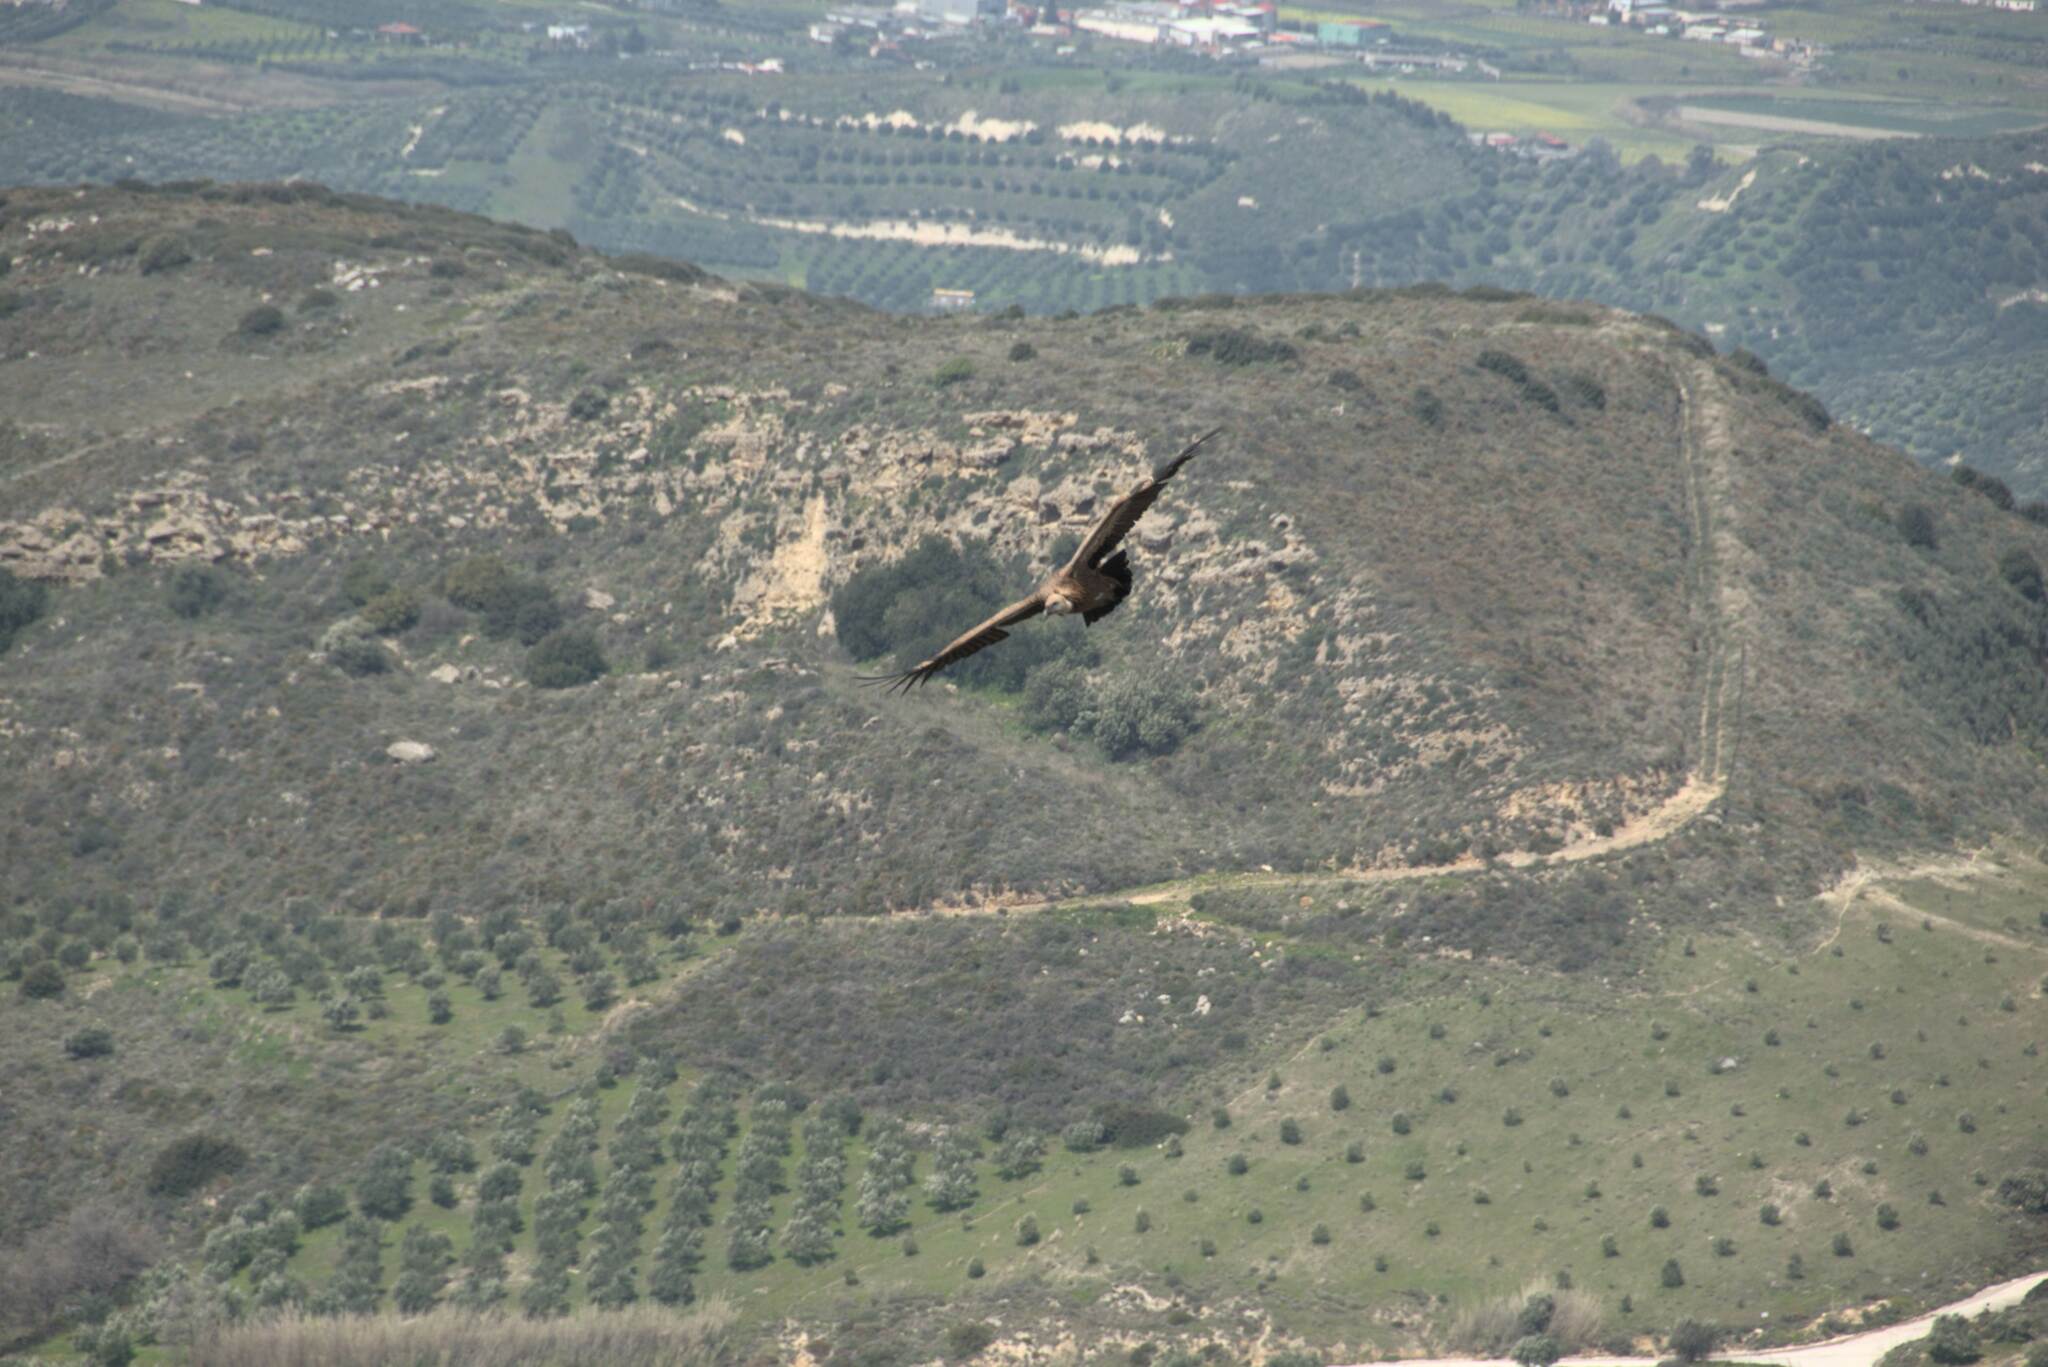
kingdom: Animalia
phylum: Chordata
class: Aves
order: Accipitriformes
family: Accipitridae
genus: Gyps
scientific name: Gyps fulvus
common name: Griffon vulture
